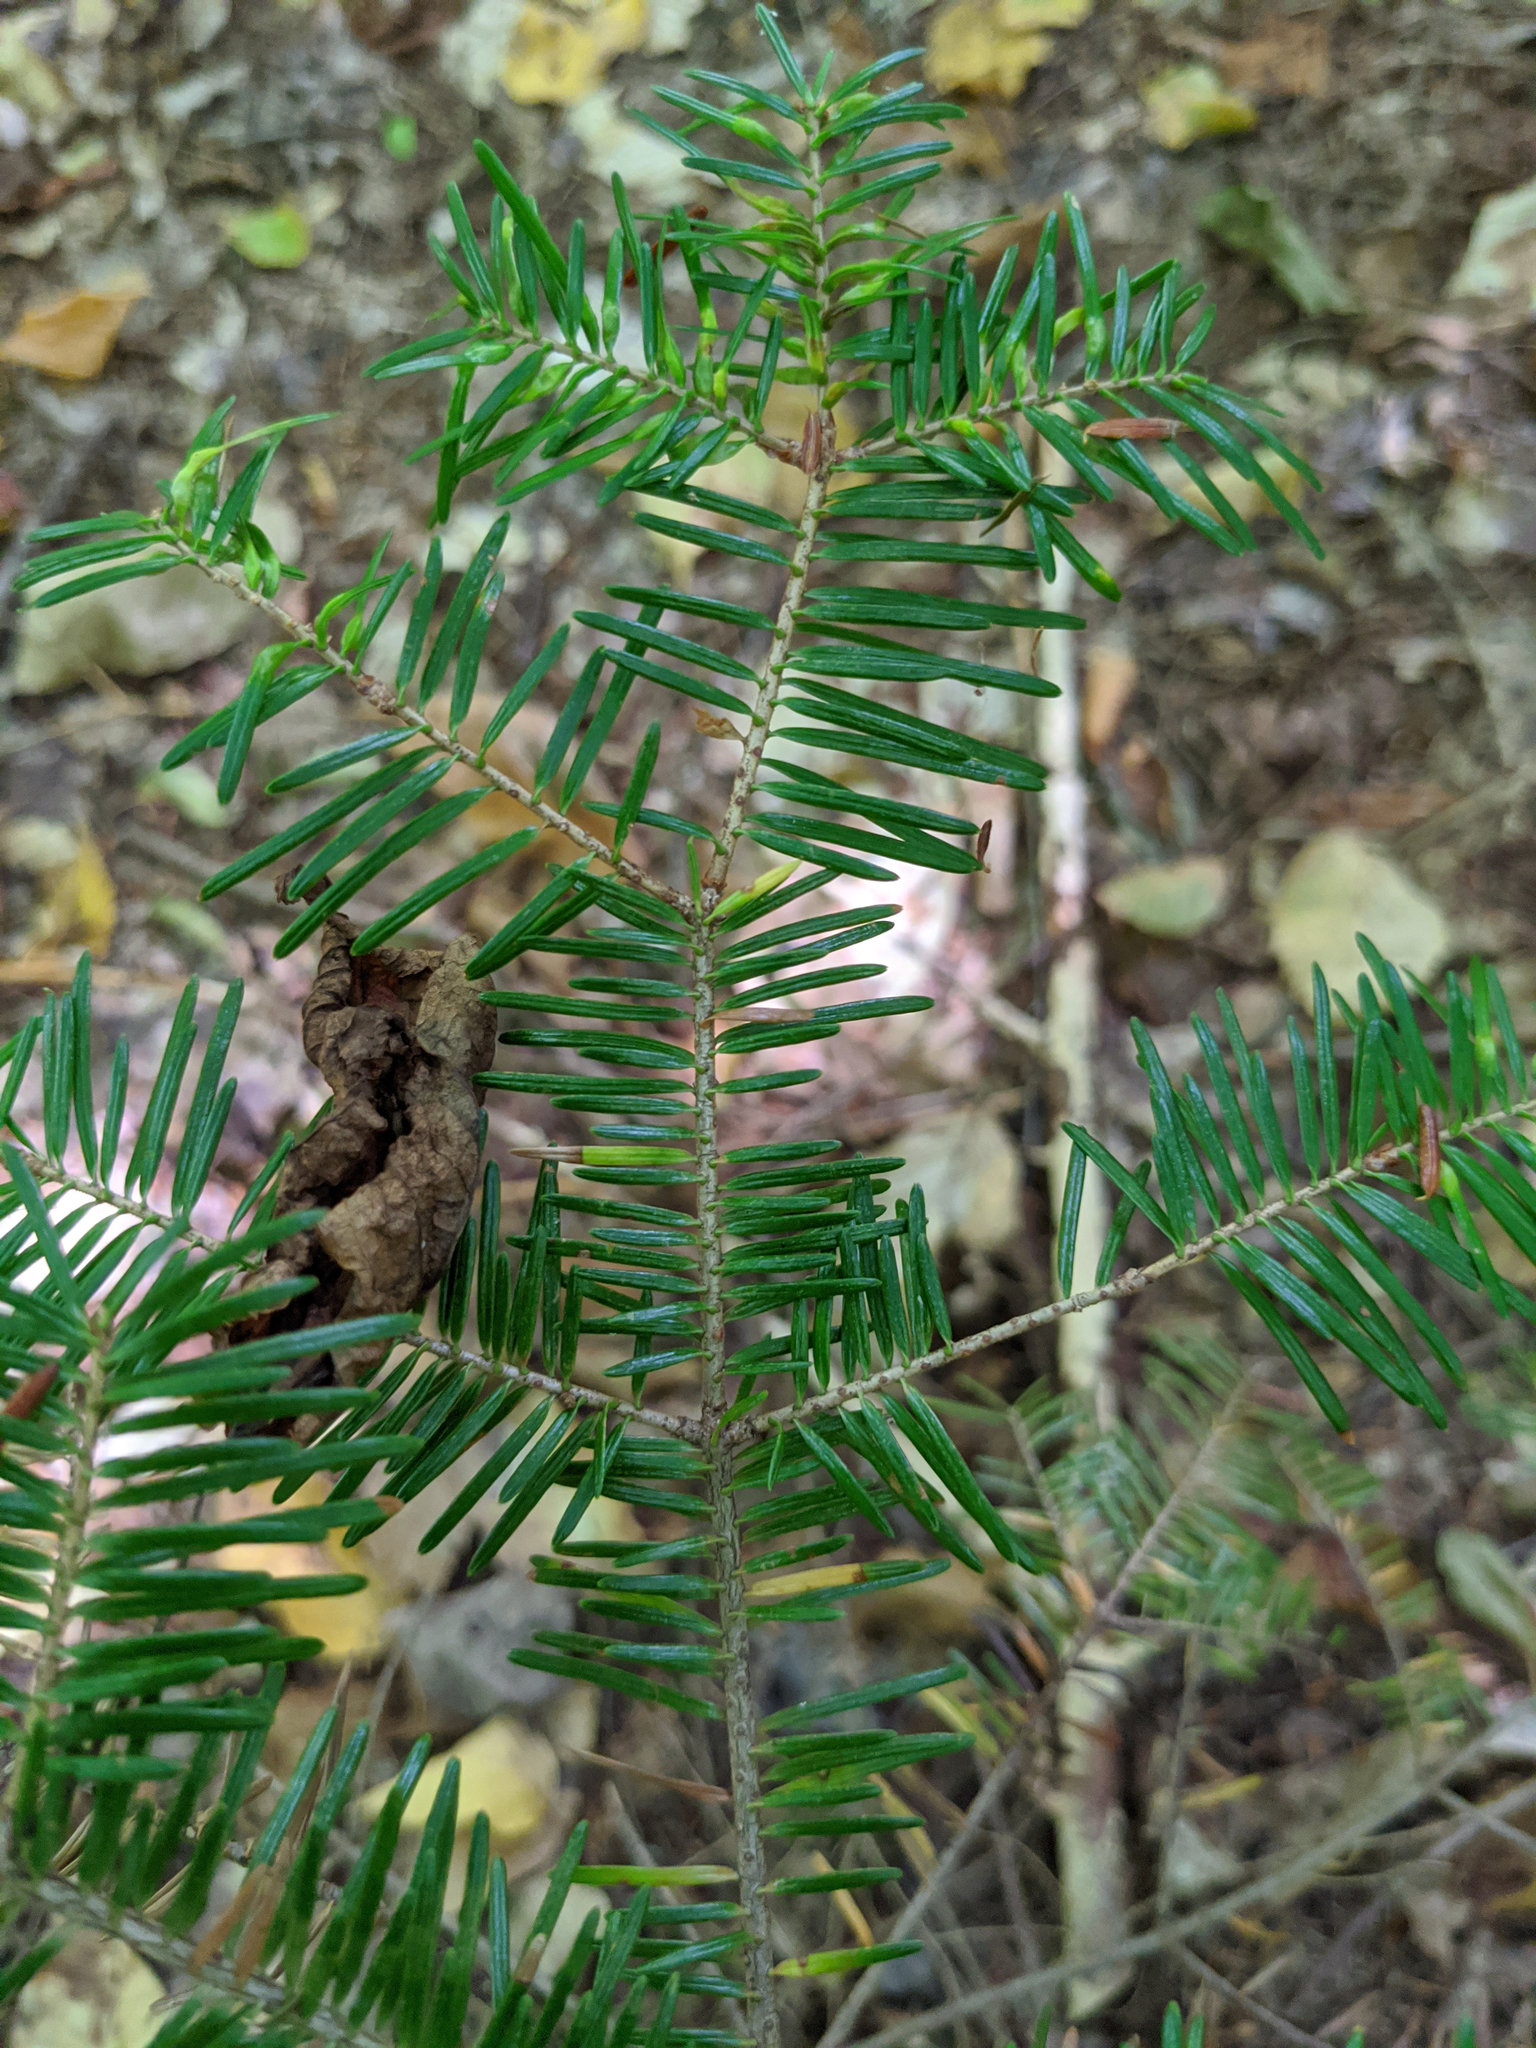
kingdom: Plantae
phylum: Tracheophyta
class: Pinopsida
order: Pinales
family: Pinaceae
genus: Abies
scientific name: Abies balsamea
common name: Balsam fir
